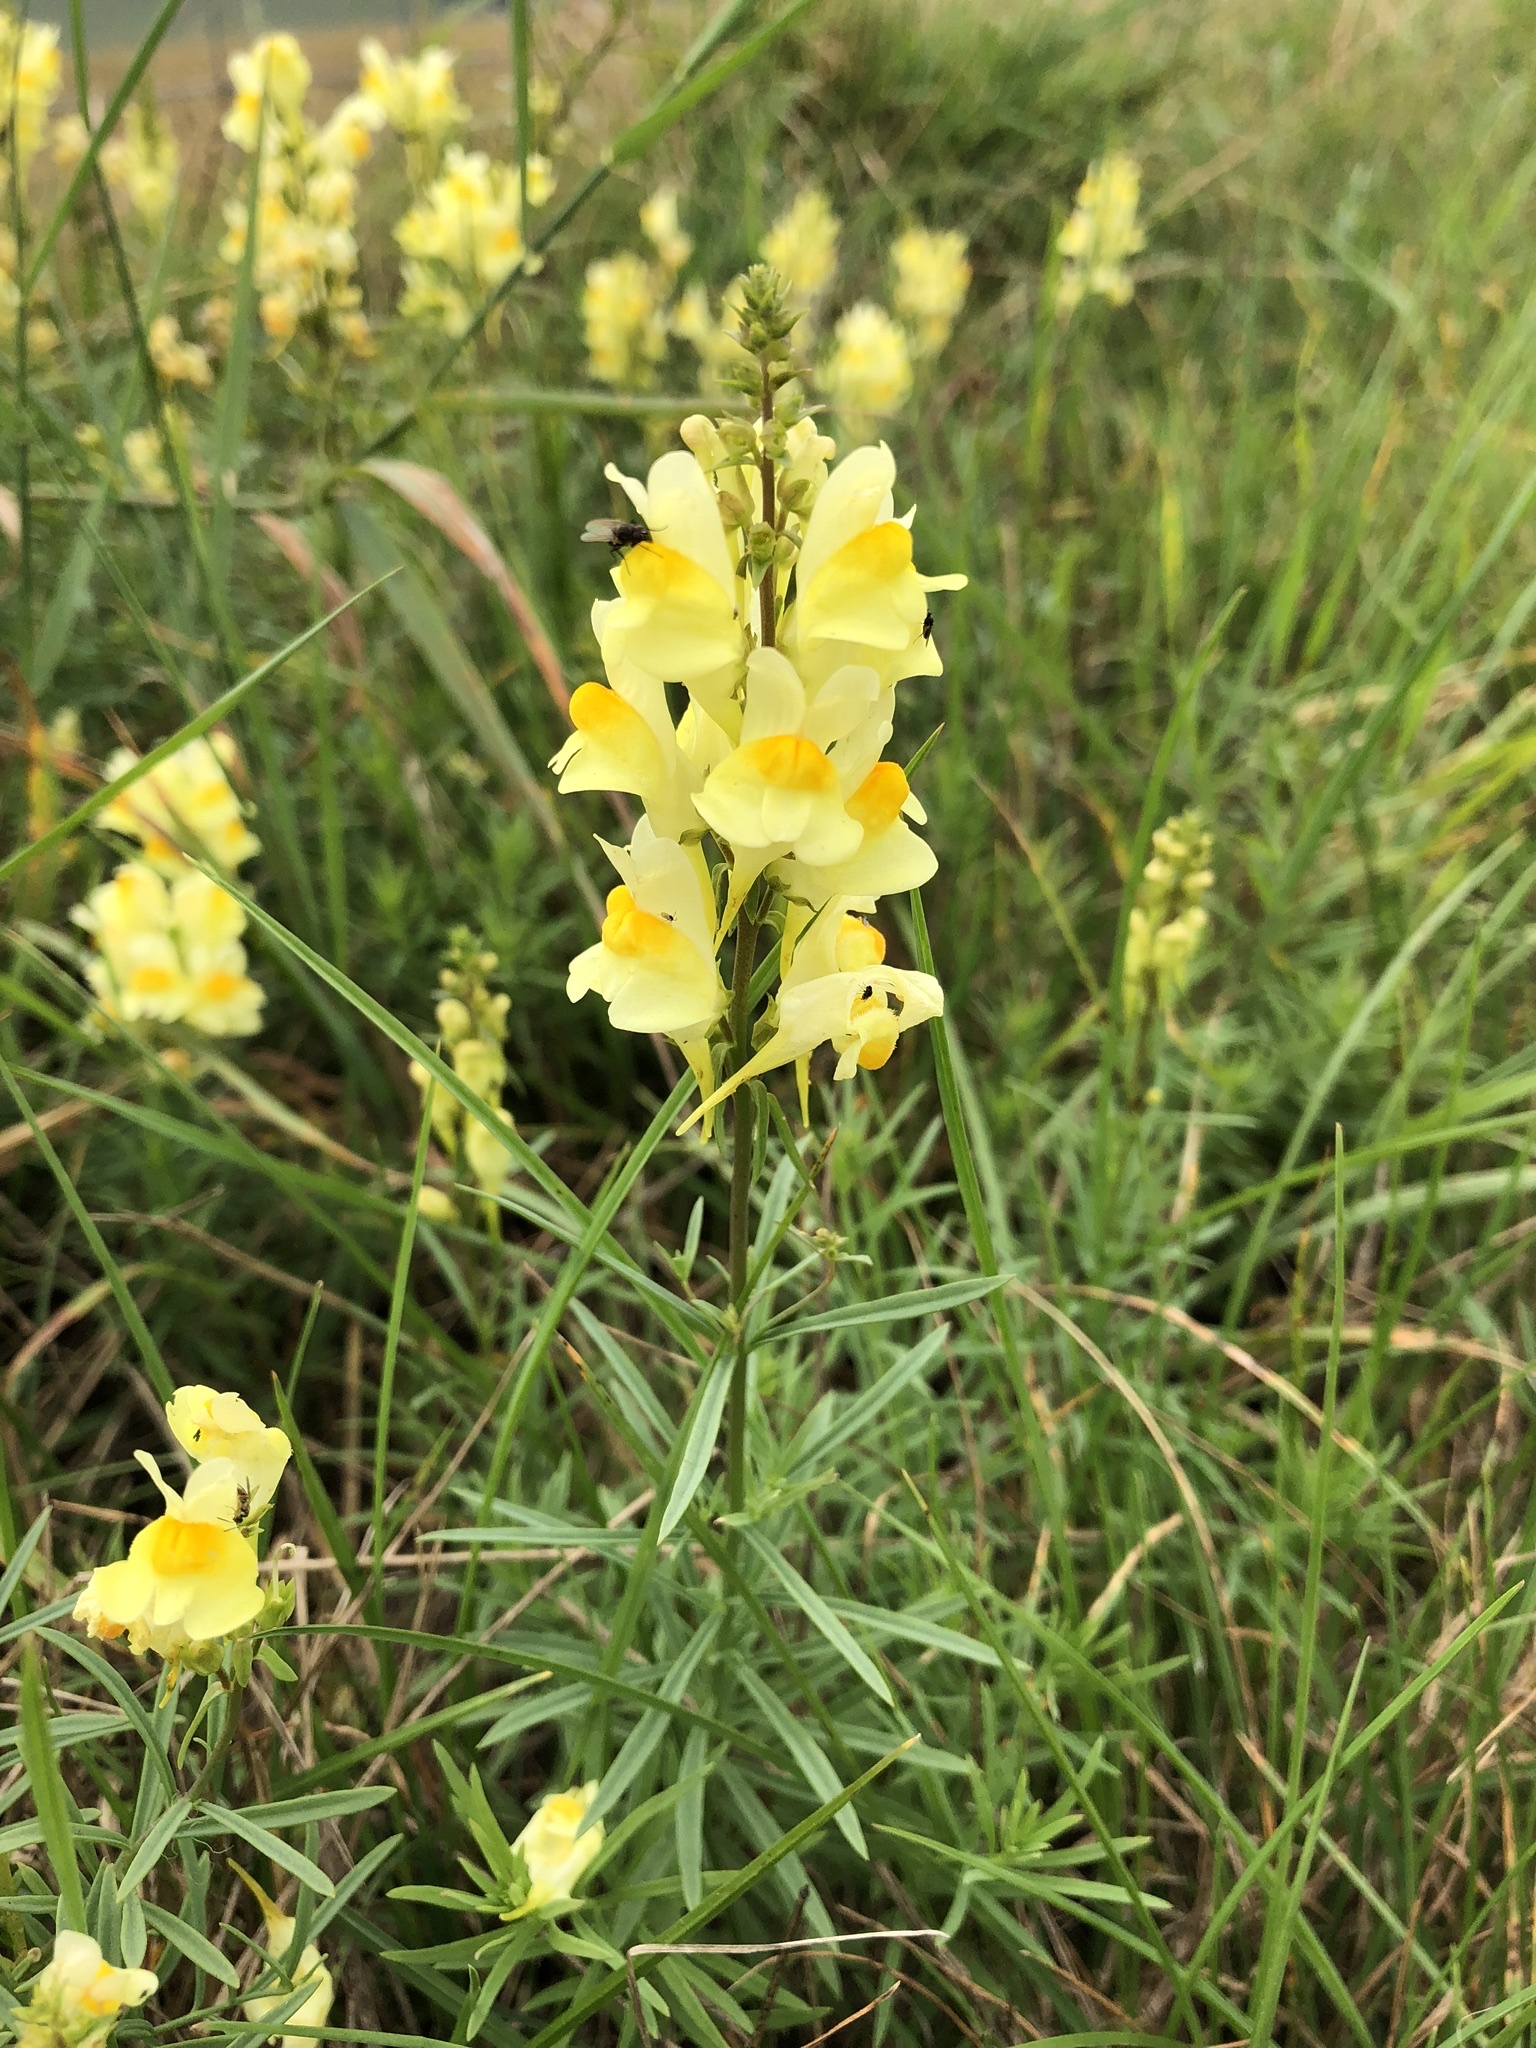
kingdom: Plantae
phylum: Tracheophyta
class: Magnoliopsida
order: Lamiales
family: Plantaginaceae
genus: Linaria
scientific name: Linaria vulgaris
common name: Butter and eggs
